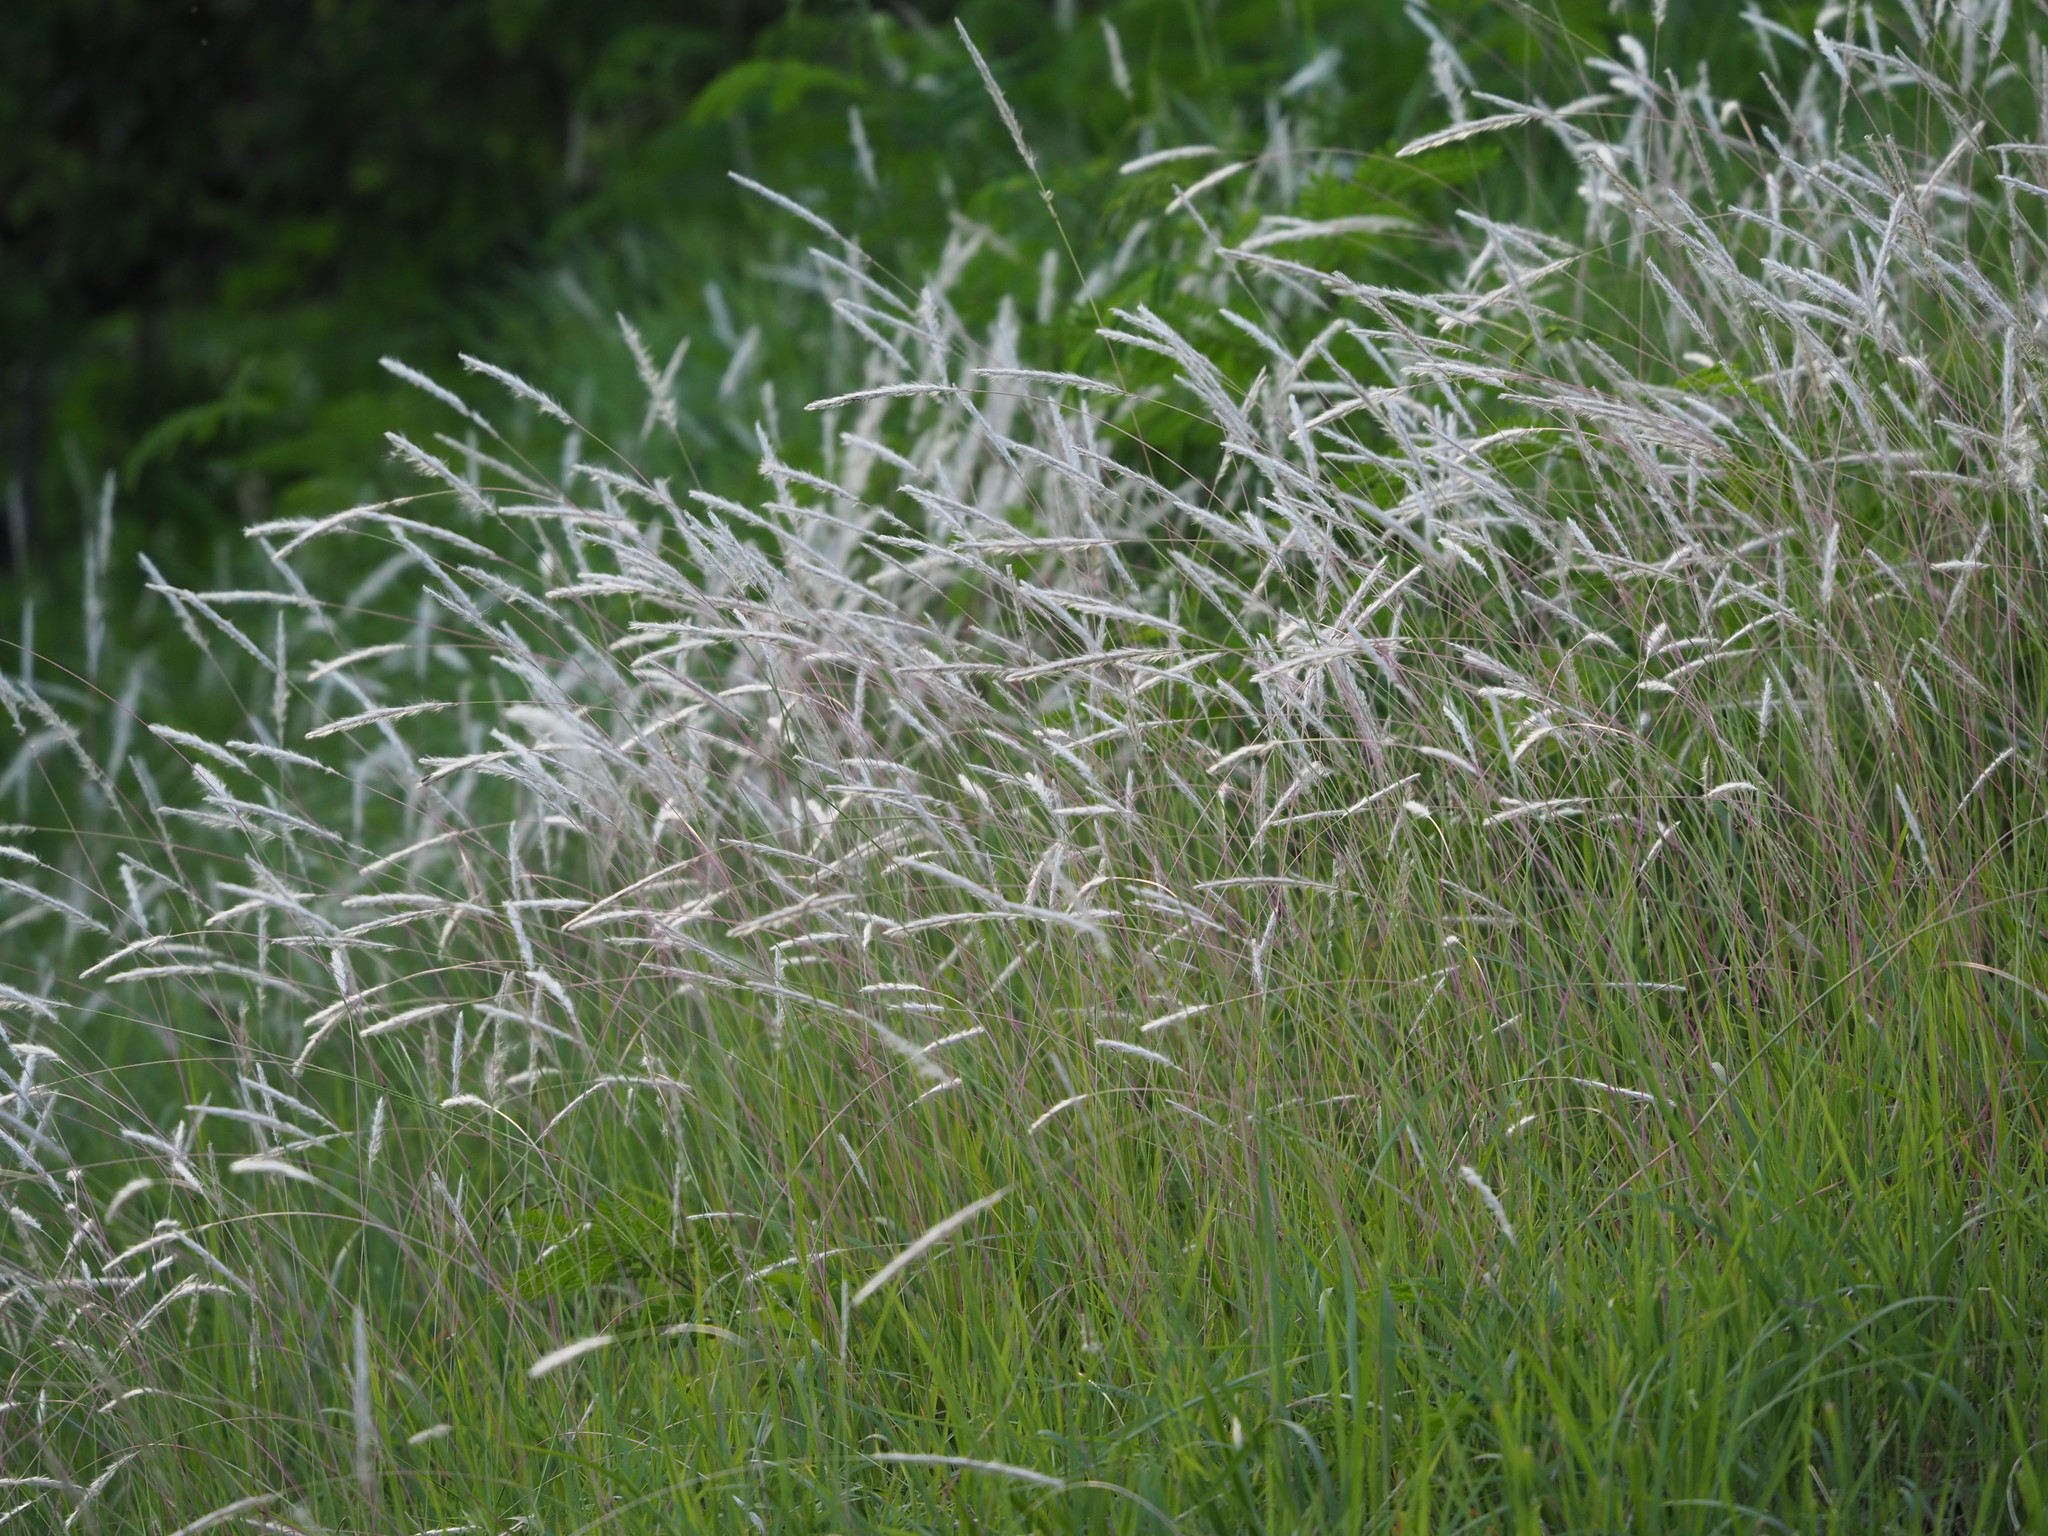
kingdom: Plantae
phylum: Tracheophyta
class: Liliopsida
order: Poales
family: Poaceae
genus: Imperata
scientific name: Imperata cylindrica
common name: Cogongrass
